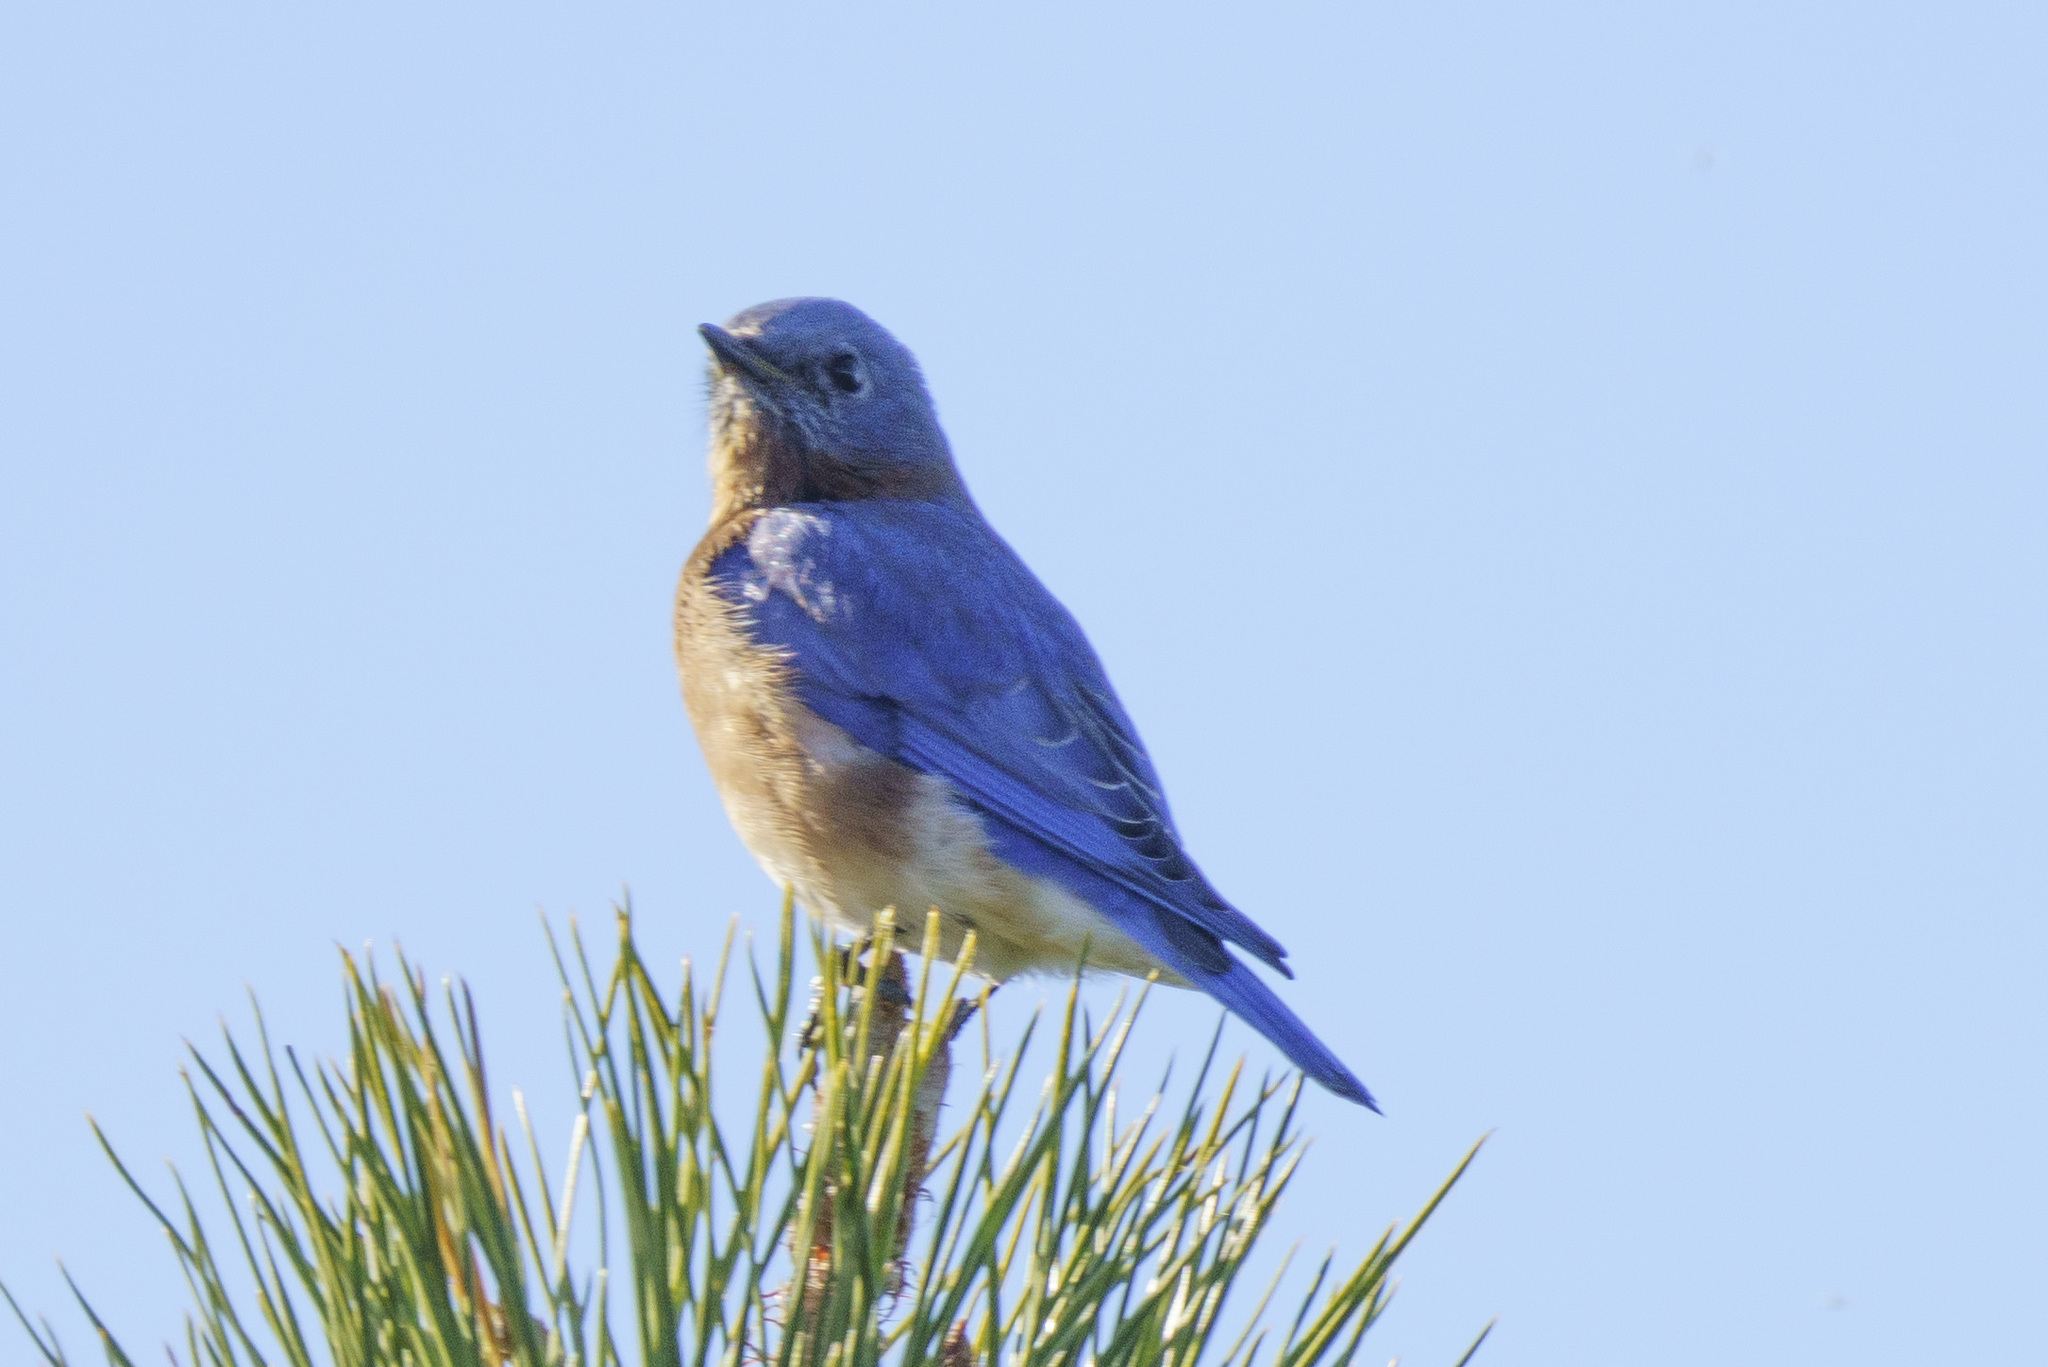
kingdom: Animalia
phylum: Chordata
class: Aves
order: Passeriformes
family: Turdidae
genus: Sialia
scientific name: Sialia sialis
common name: Eastern bluebird
